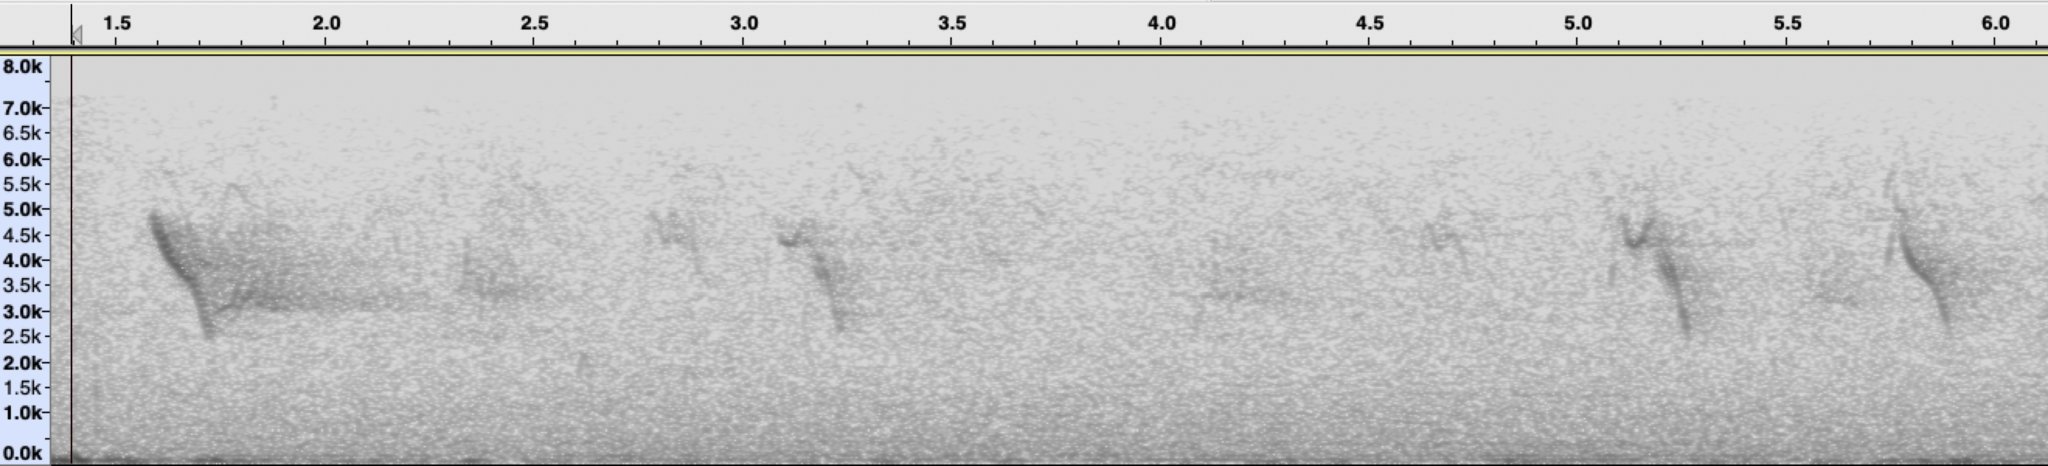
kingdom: Animalia
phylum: Chordata
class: Aves
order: Passeriformes
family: Fringillidae
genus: Hesperiphona
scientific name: Hesperiphona vespertina
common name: Evening grosbeak
